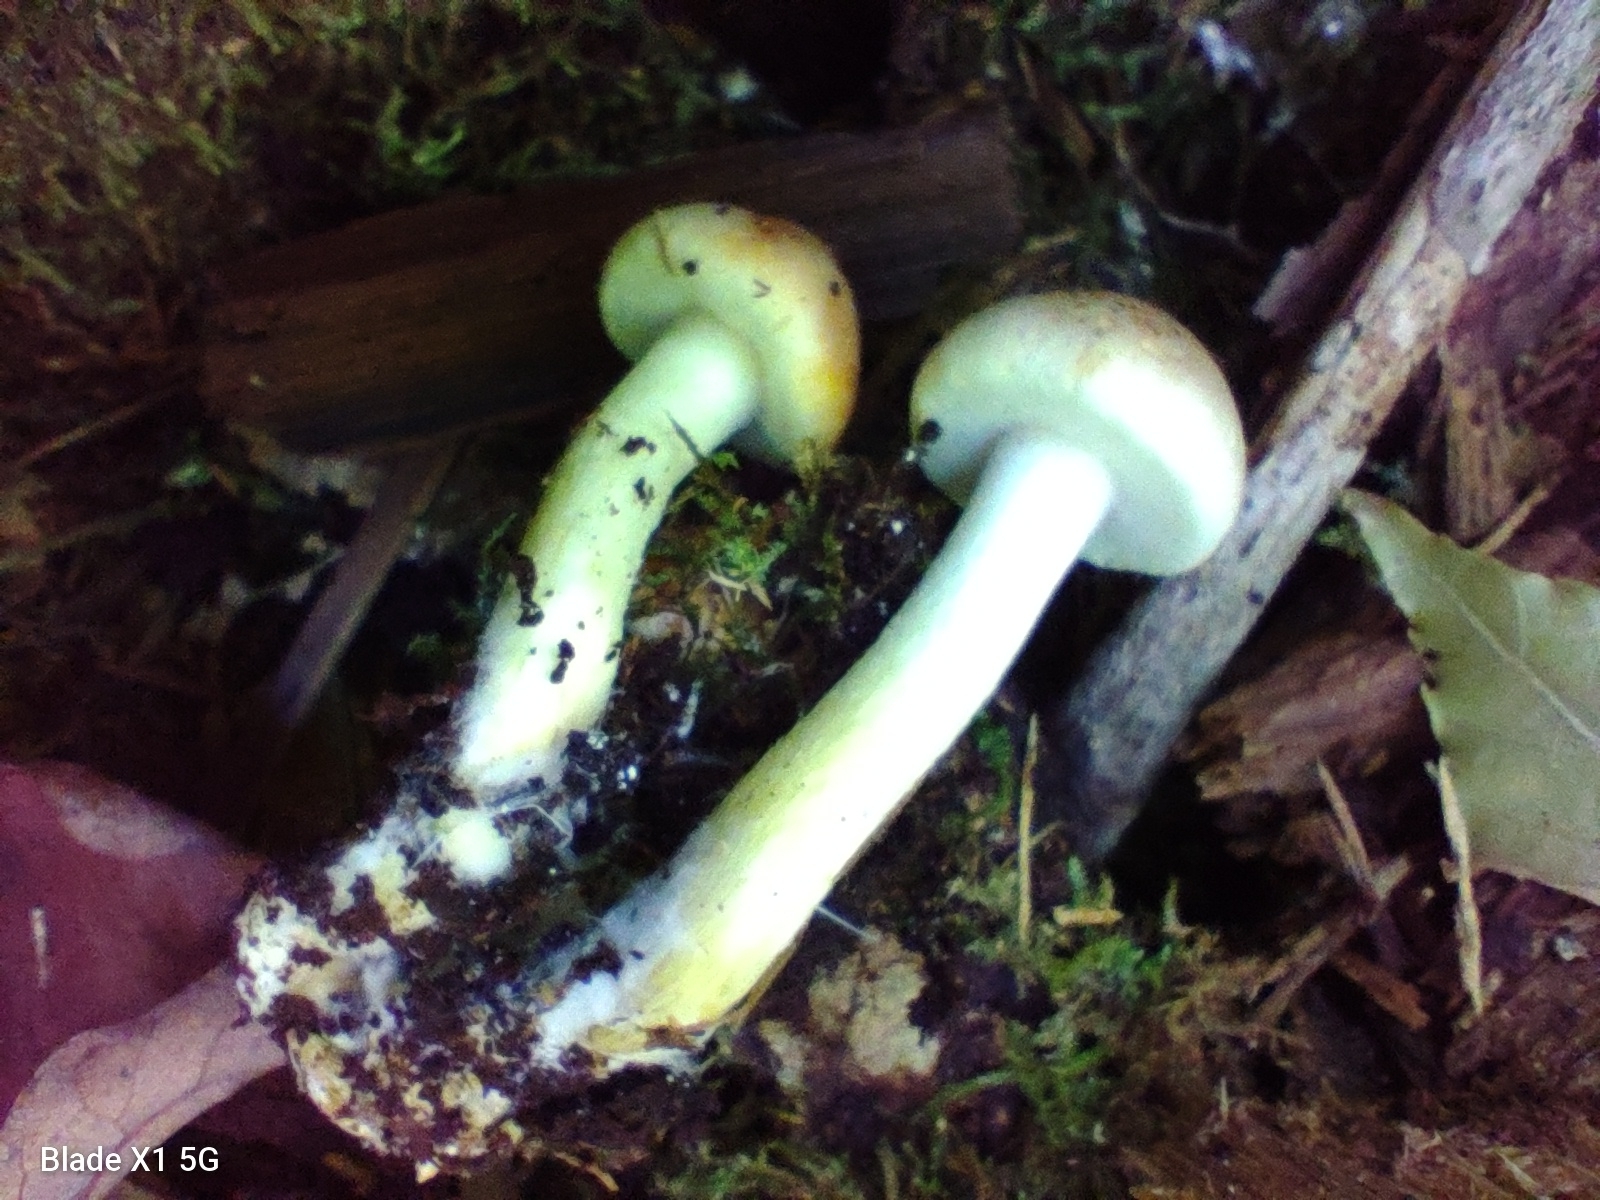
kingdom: Fungi
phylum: Basidiomycota
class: Agaricomycetes
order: Agaricales
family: Strophariaceae
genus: Hypholoma
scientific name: Hypholoma capnoides
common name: Conifer tuft
